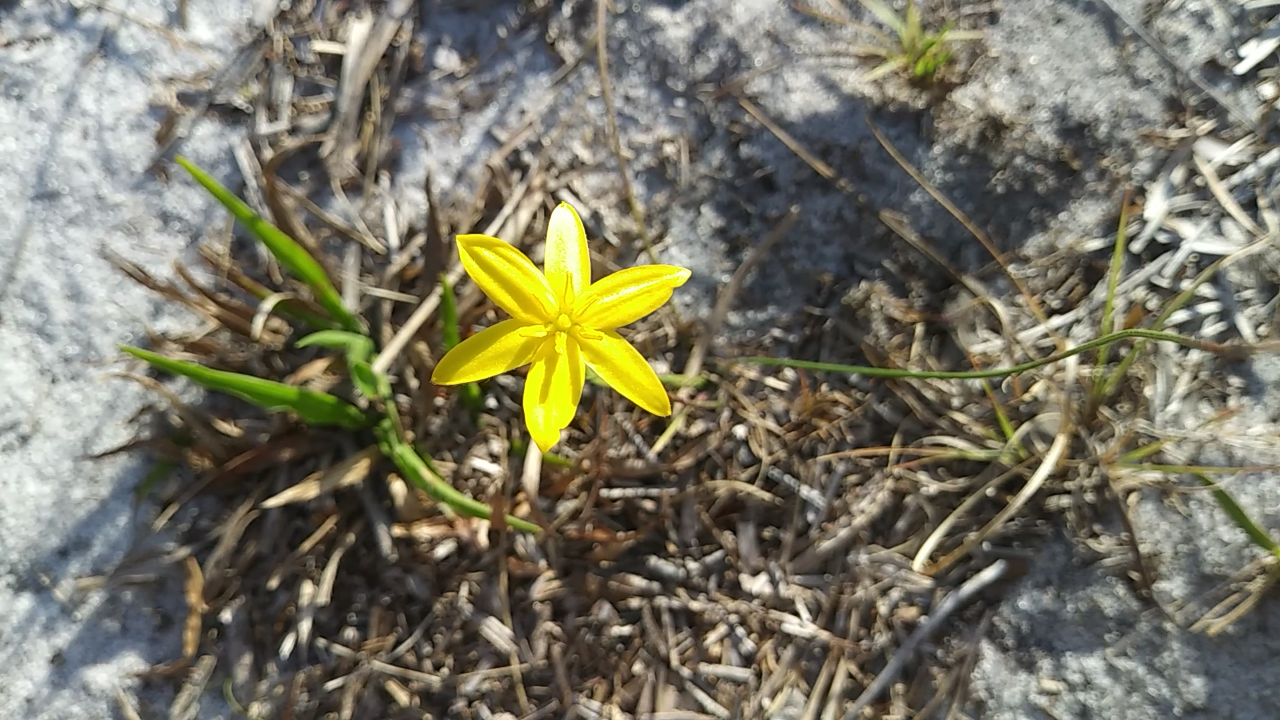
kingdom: Plantae
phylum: Tracheophyta
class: Liliopsida
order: Asparagales
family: Hypoxidaceae
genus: Hypoxis
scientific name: Hypoxis juncea
